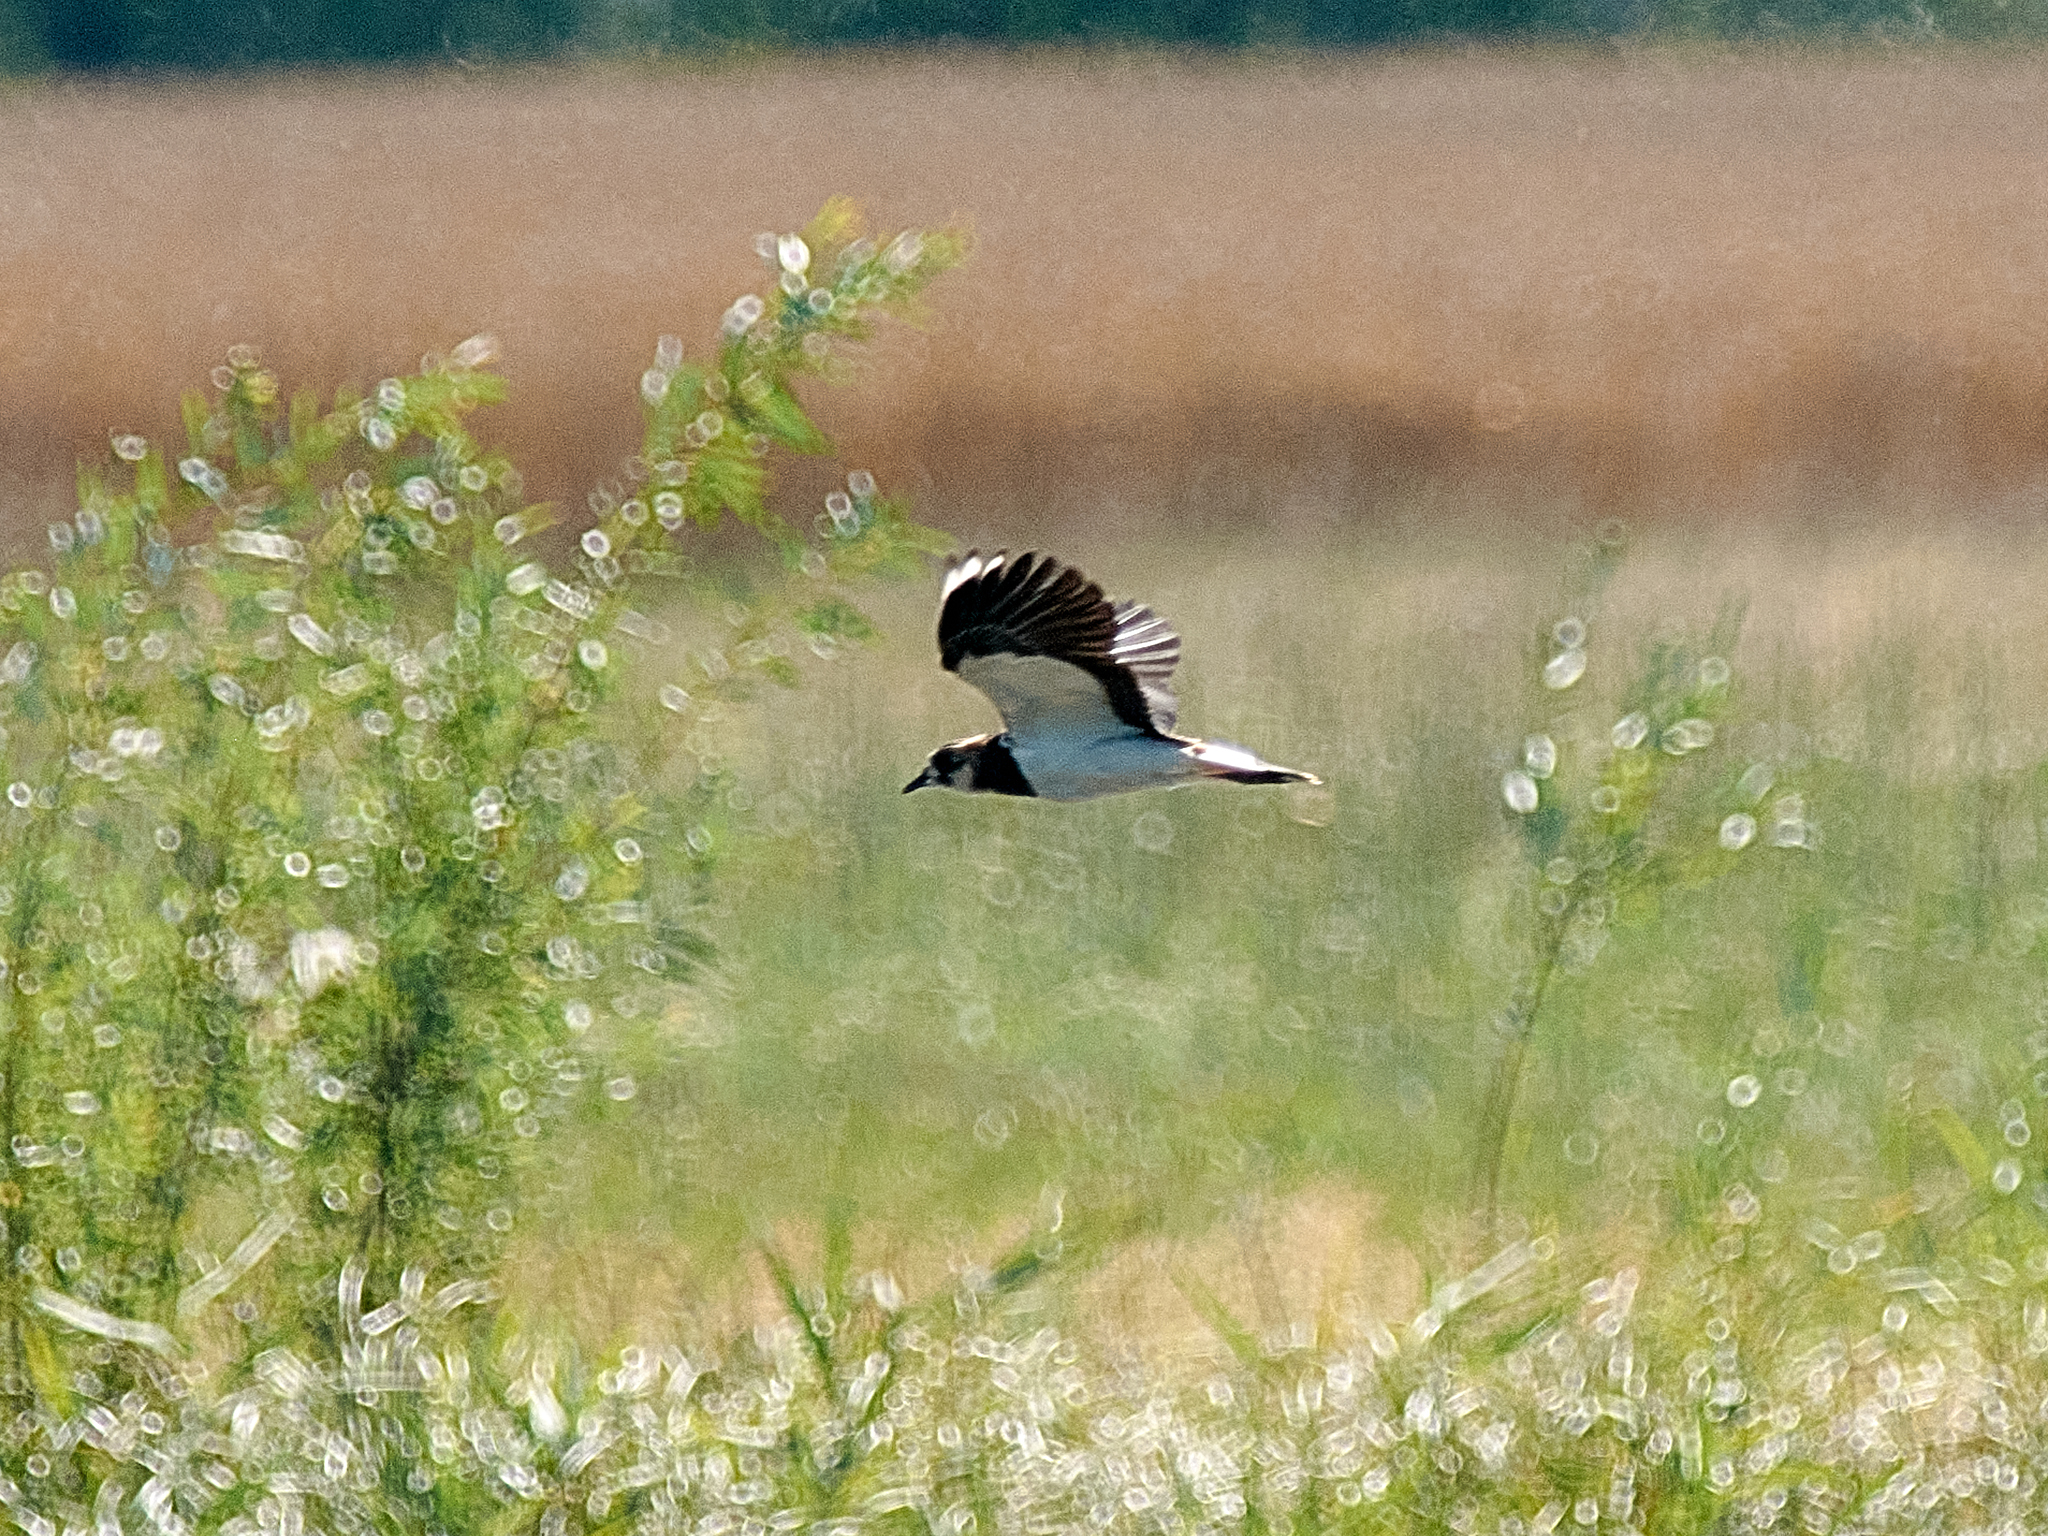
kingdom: Animalia
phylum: Chordata
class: Aves
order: Charadriiformes
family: Charadriidae
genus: Vanellus
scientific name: Vanellus vanellus
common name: Northern lapwing
